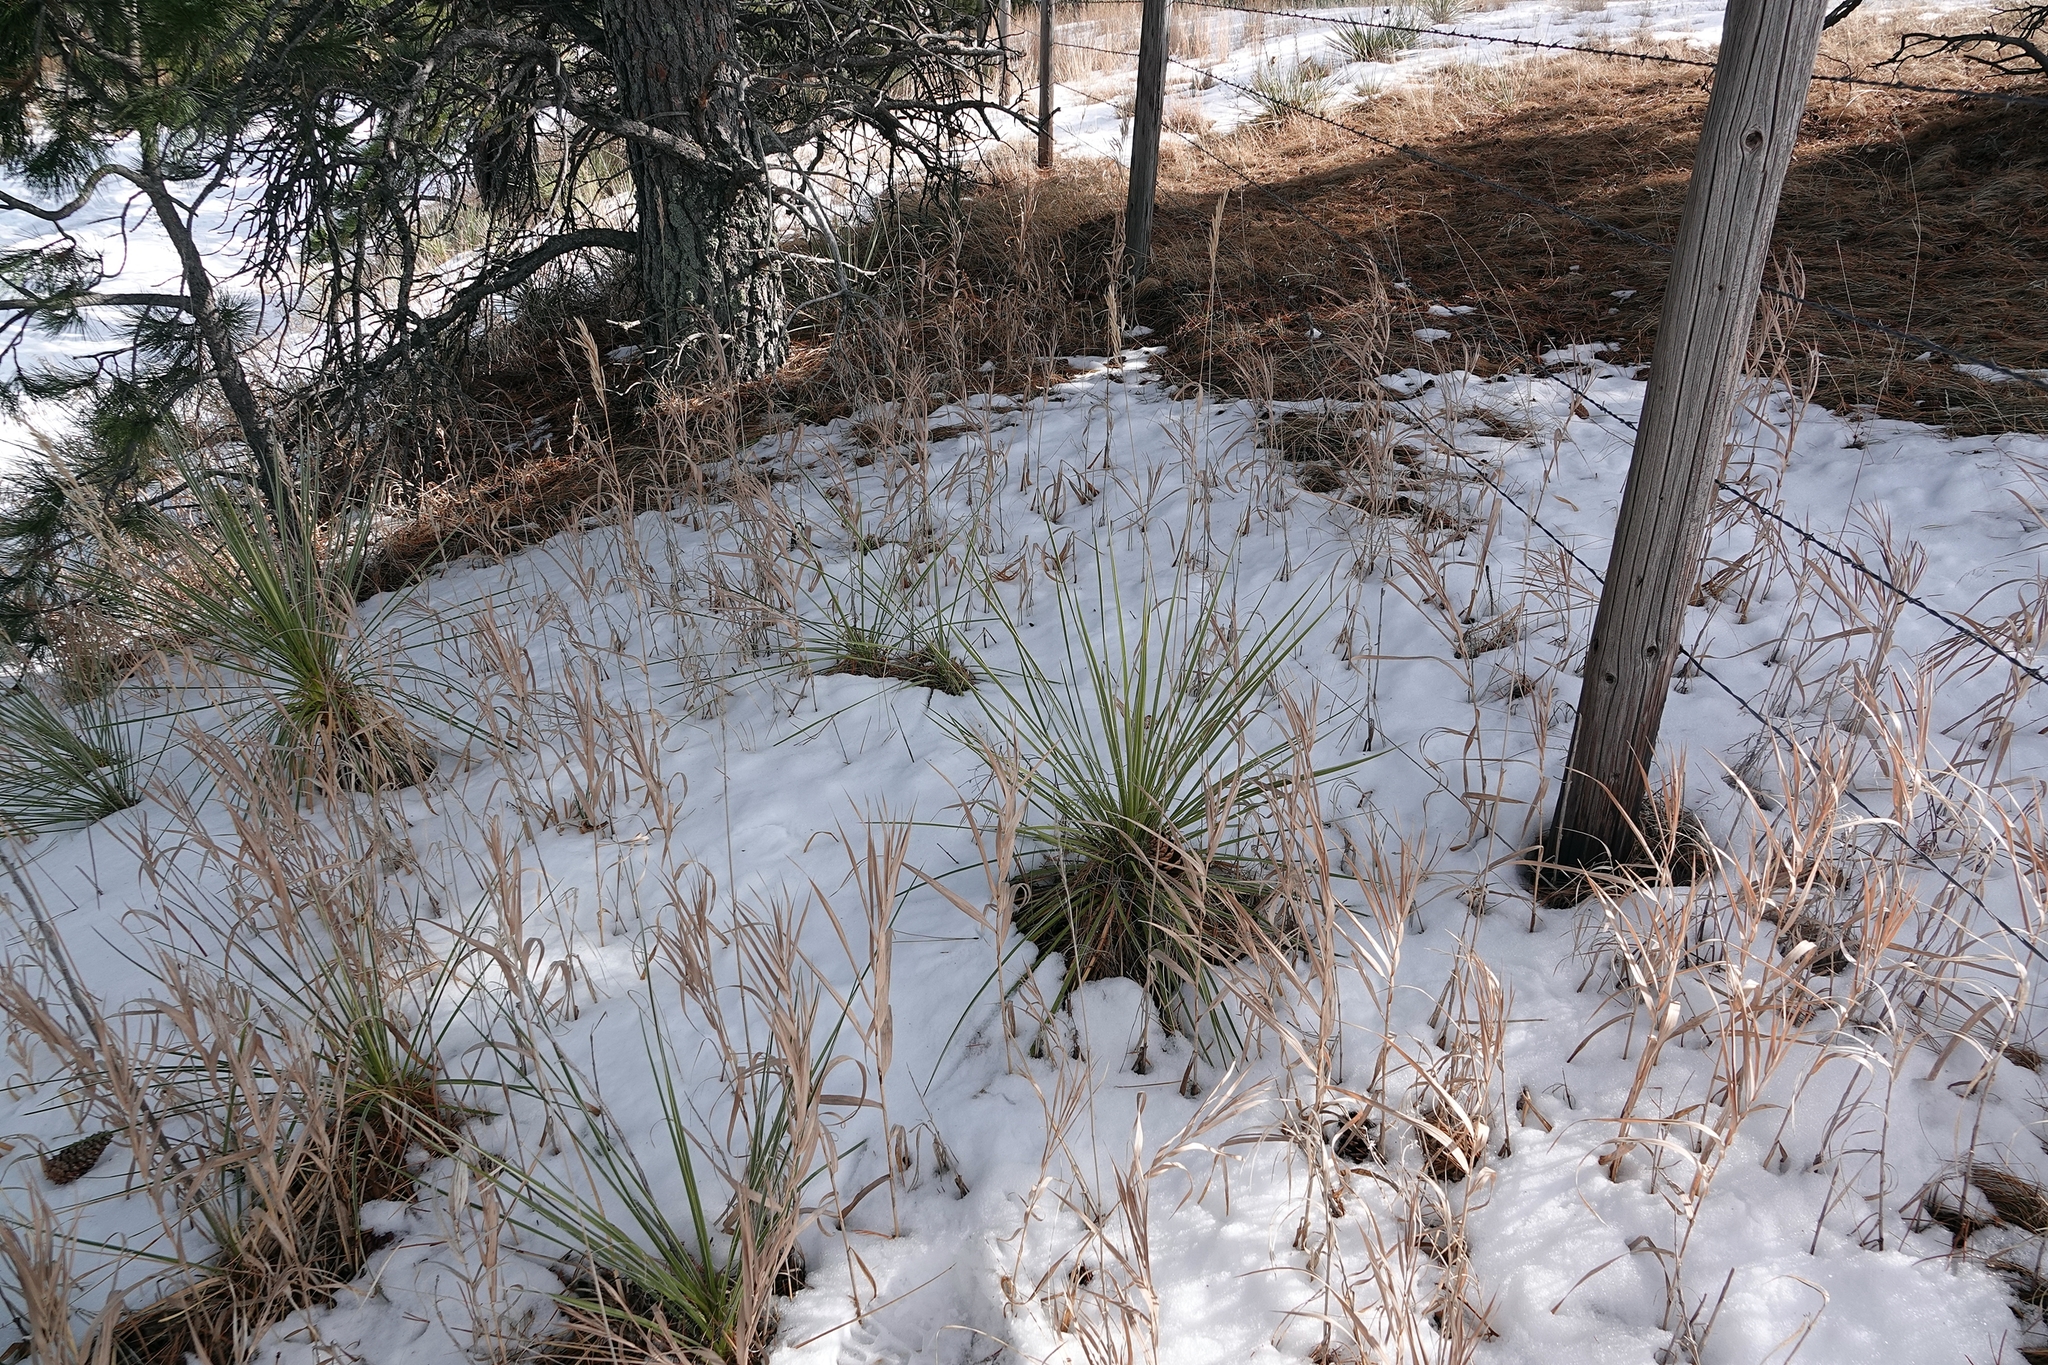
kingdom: Plantae
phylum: Tracheophyta
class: Liliopsida
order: Poales
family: Poaceae
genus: Bromus
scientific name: Bromus inermis
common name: Smooth brome
